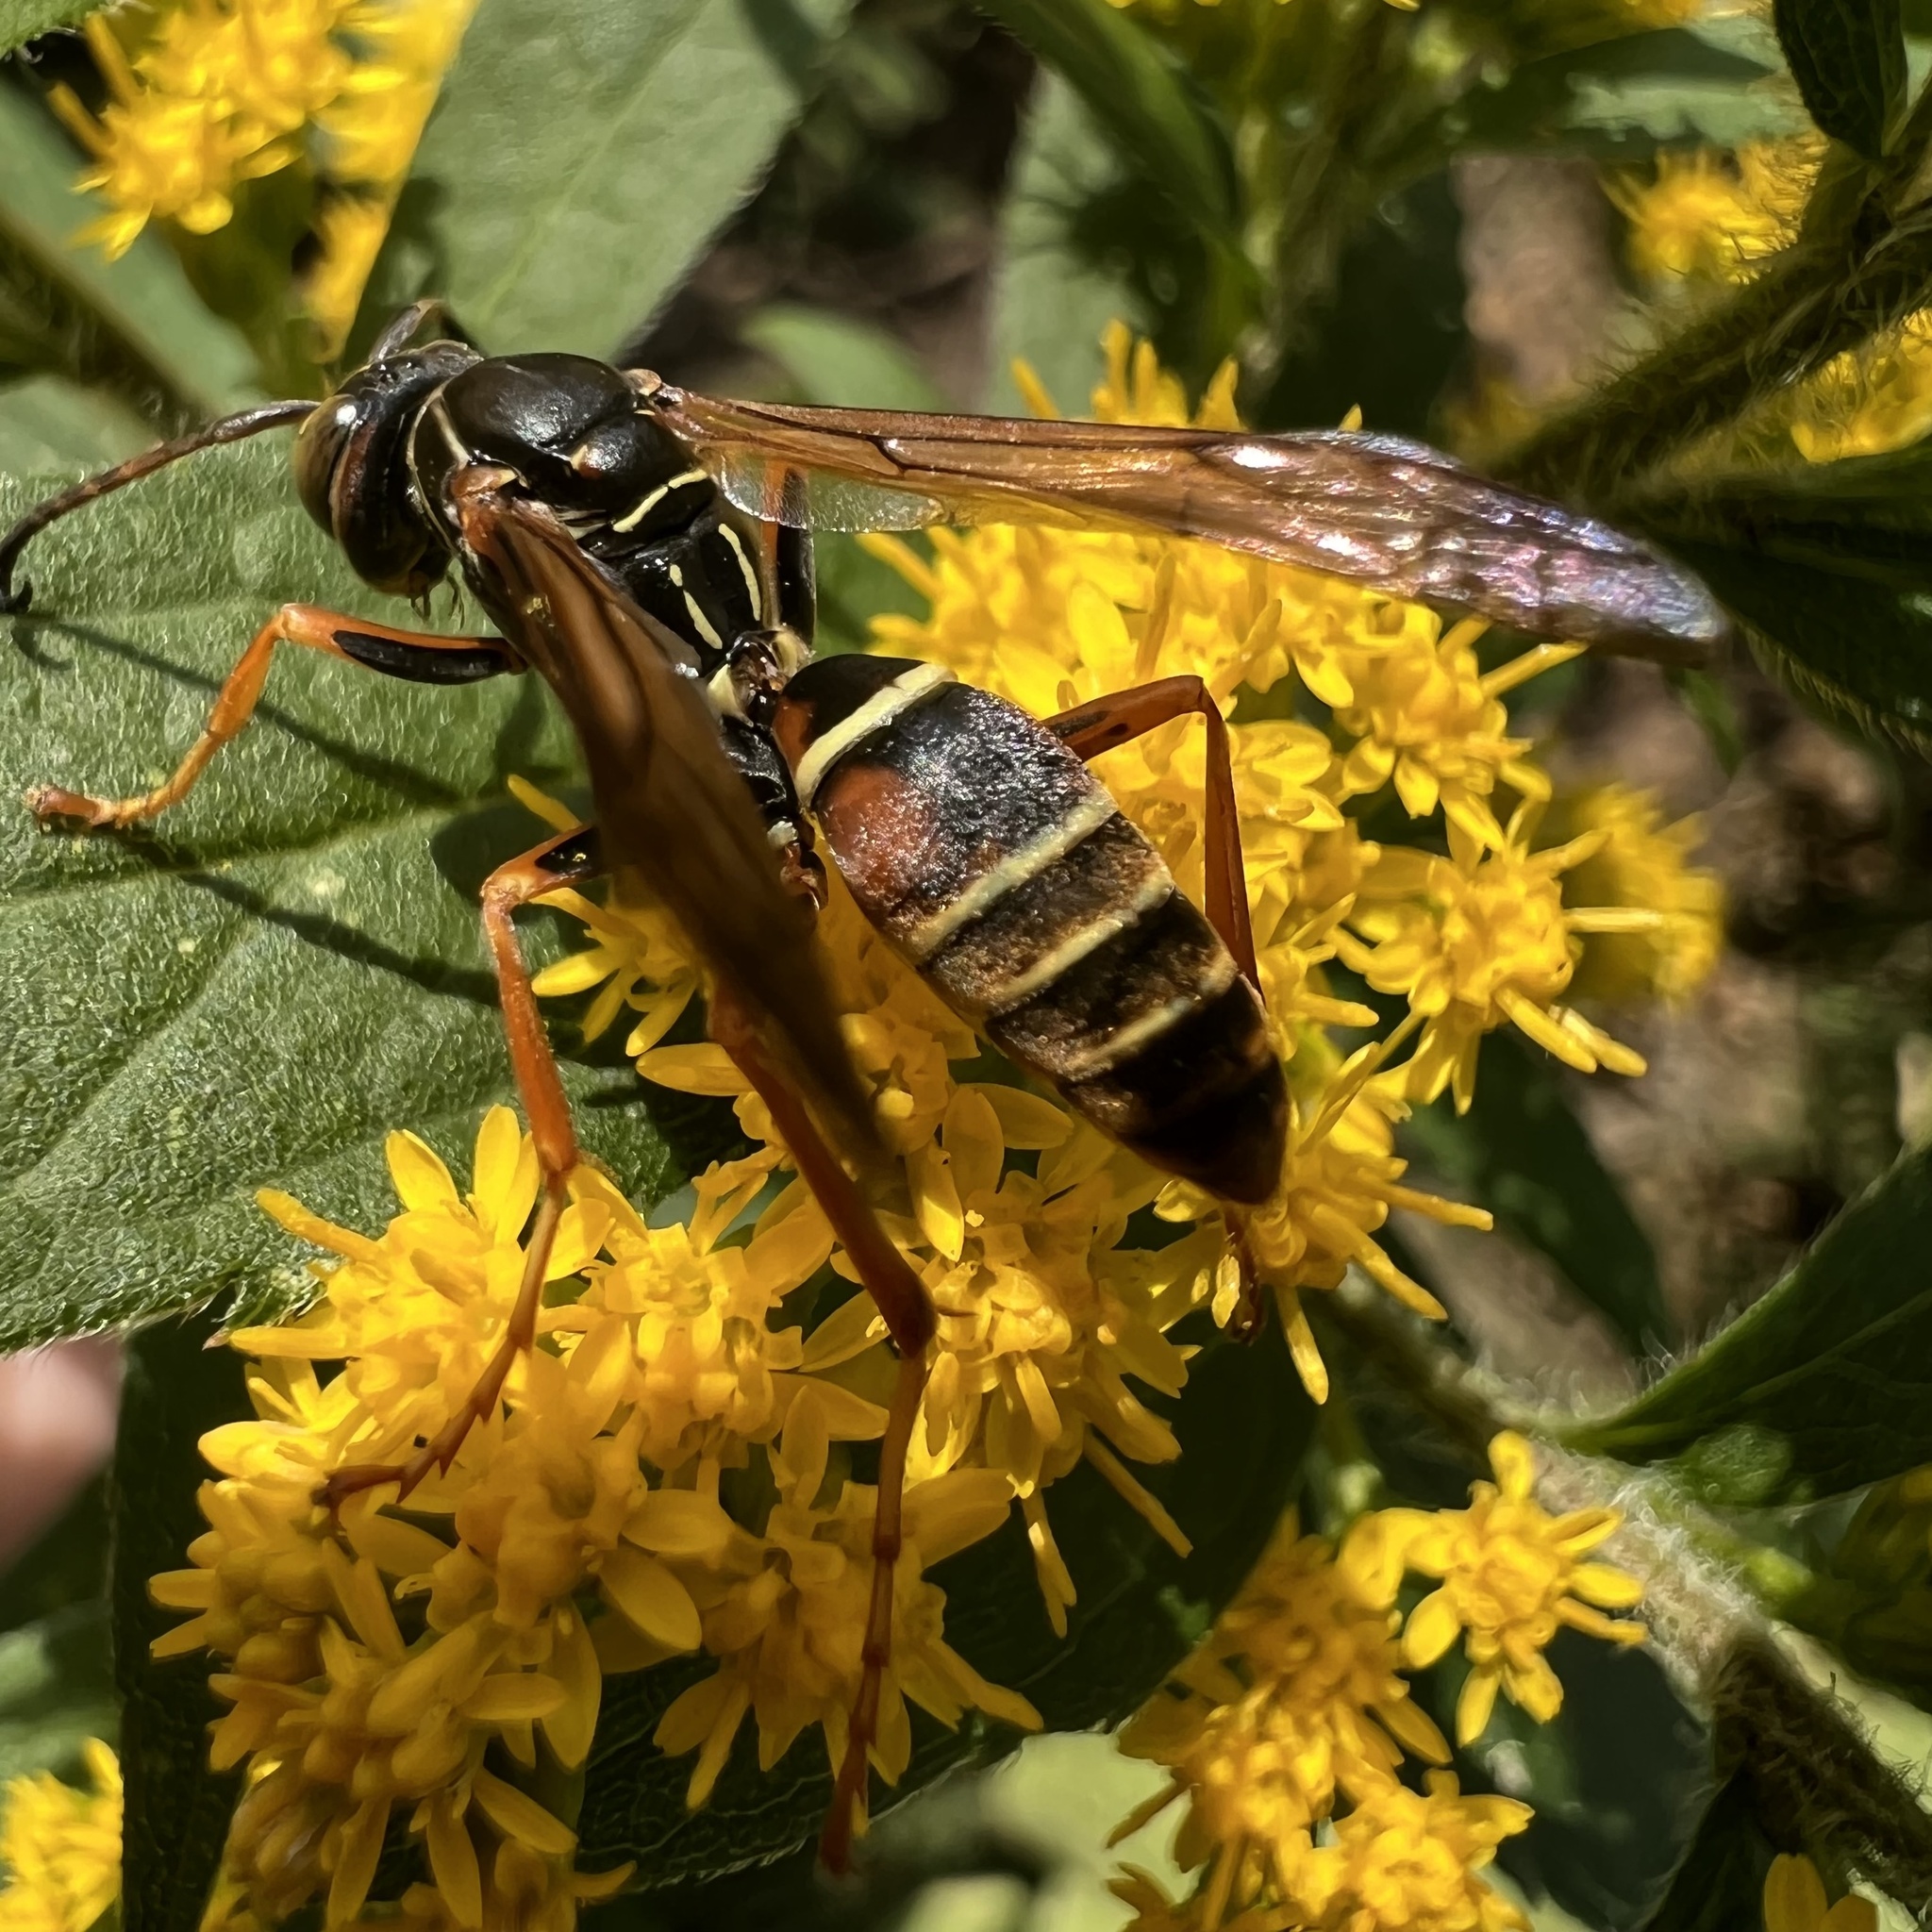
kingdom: Animalia
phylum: Arthropoda
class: Insecta
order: Hymenoptera
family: Eumenidae
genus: Polistes
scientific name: Polistes fuscatus
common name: Dark paper wasp
